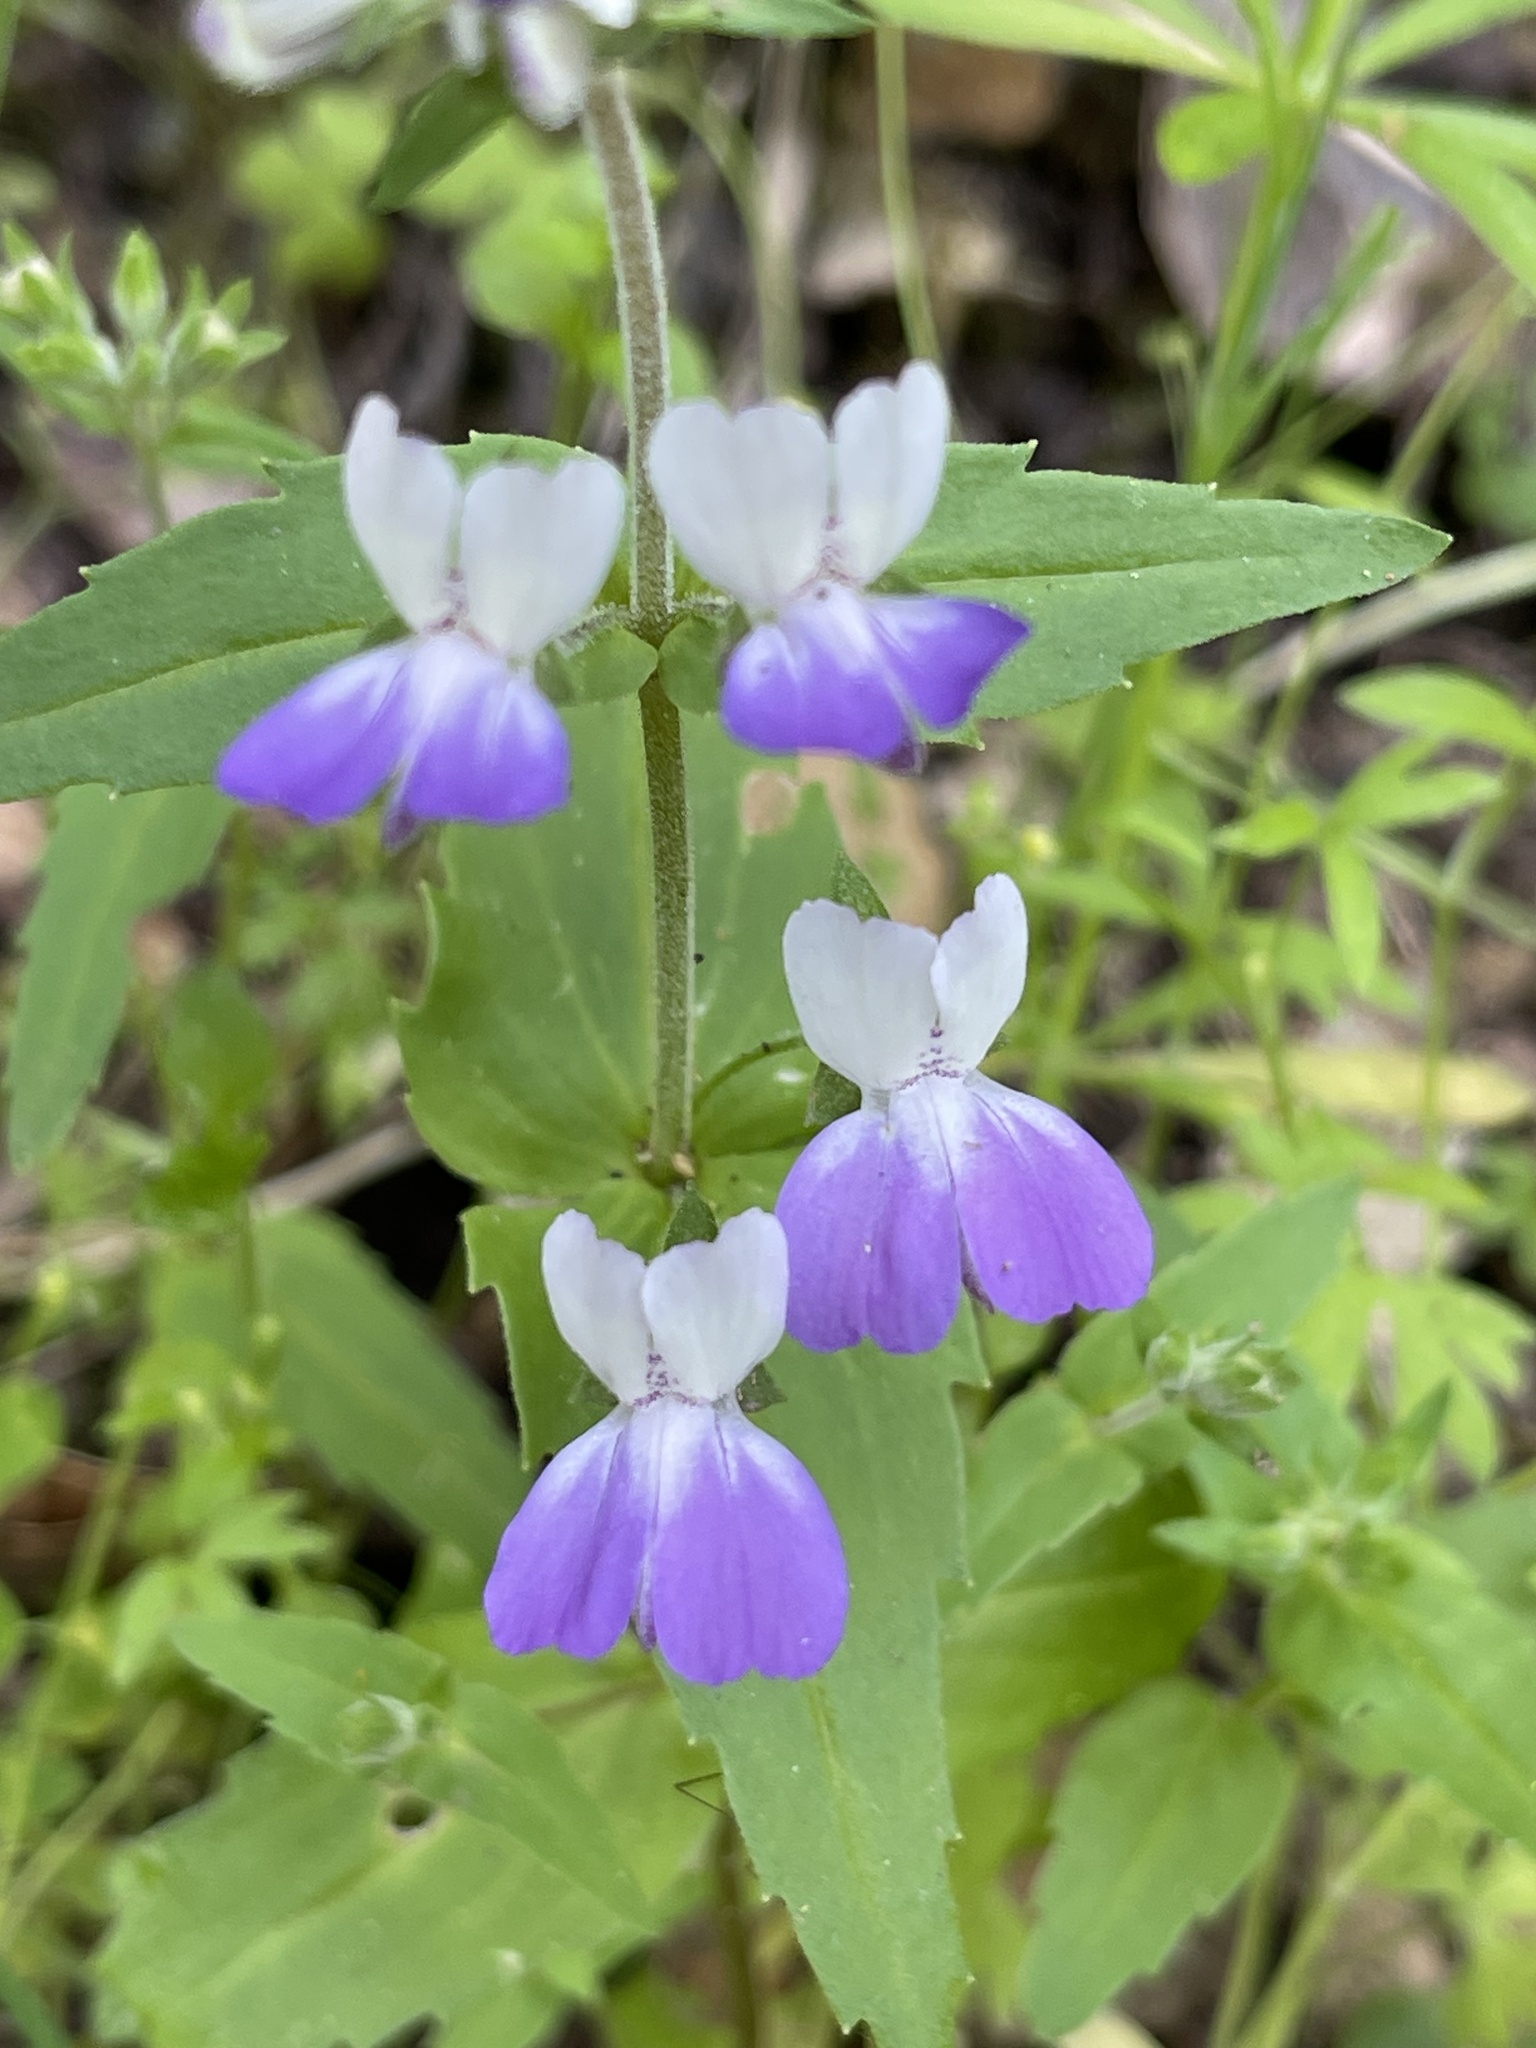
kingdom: Plantae
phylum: Tracheophyta
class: Magnoliopsida
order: Lamiales
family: Plantaginaceae
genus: Collinsia
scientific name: Collinsia multicolor
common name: San francisco collinsia
